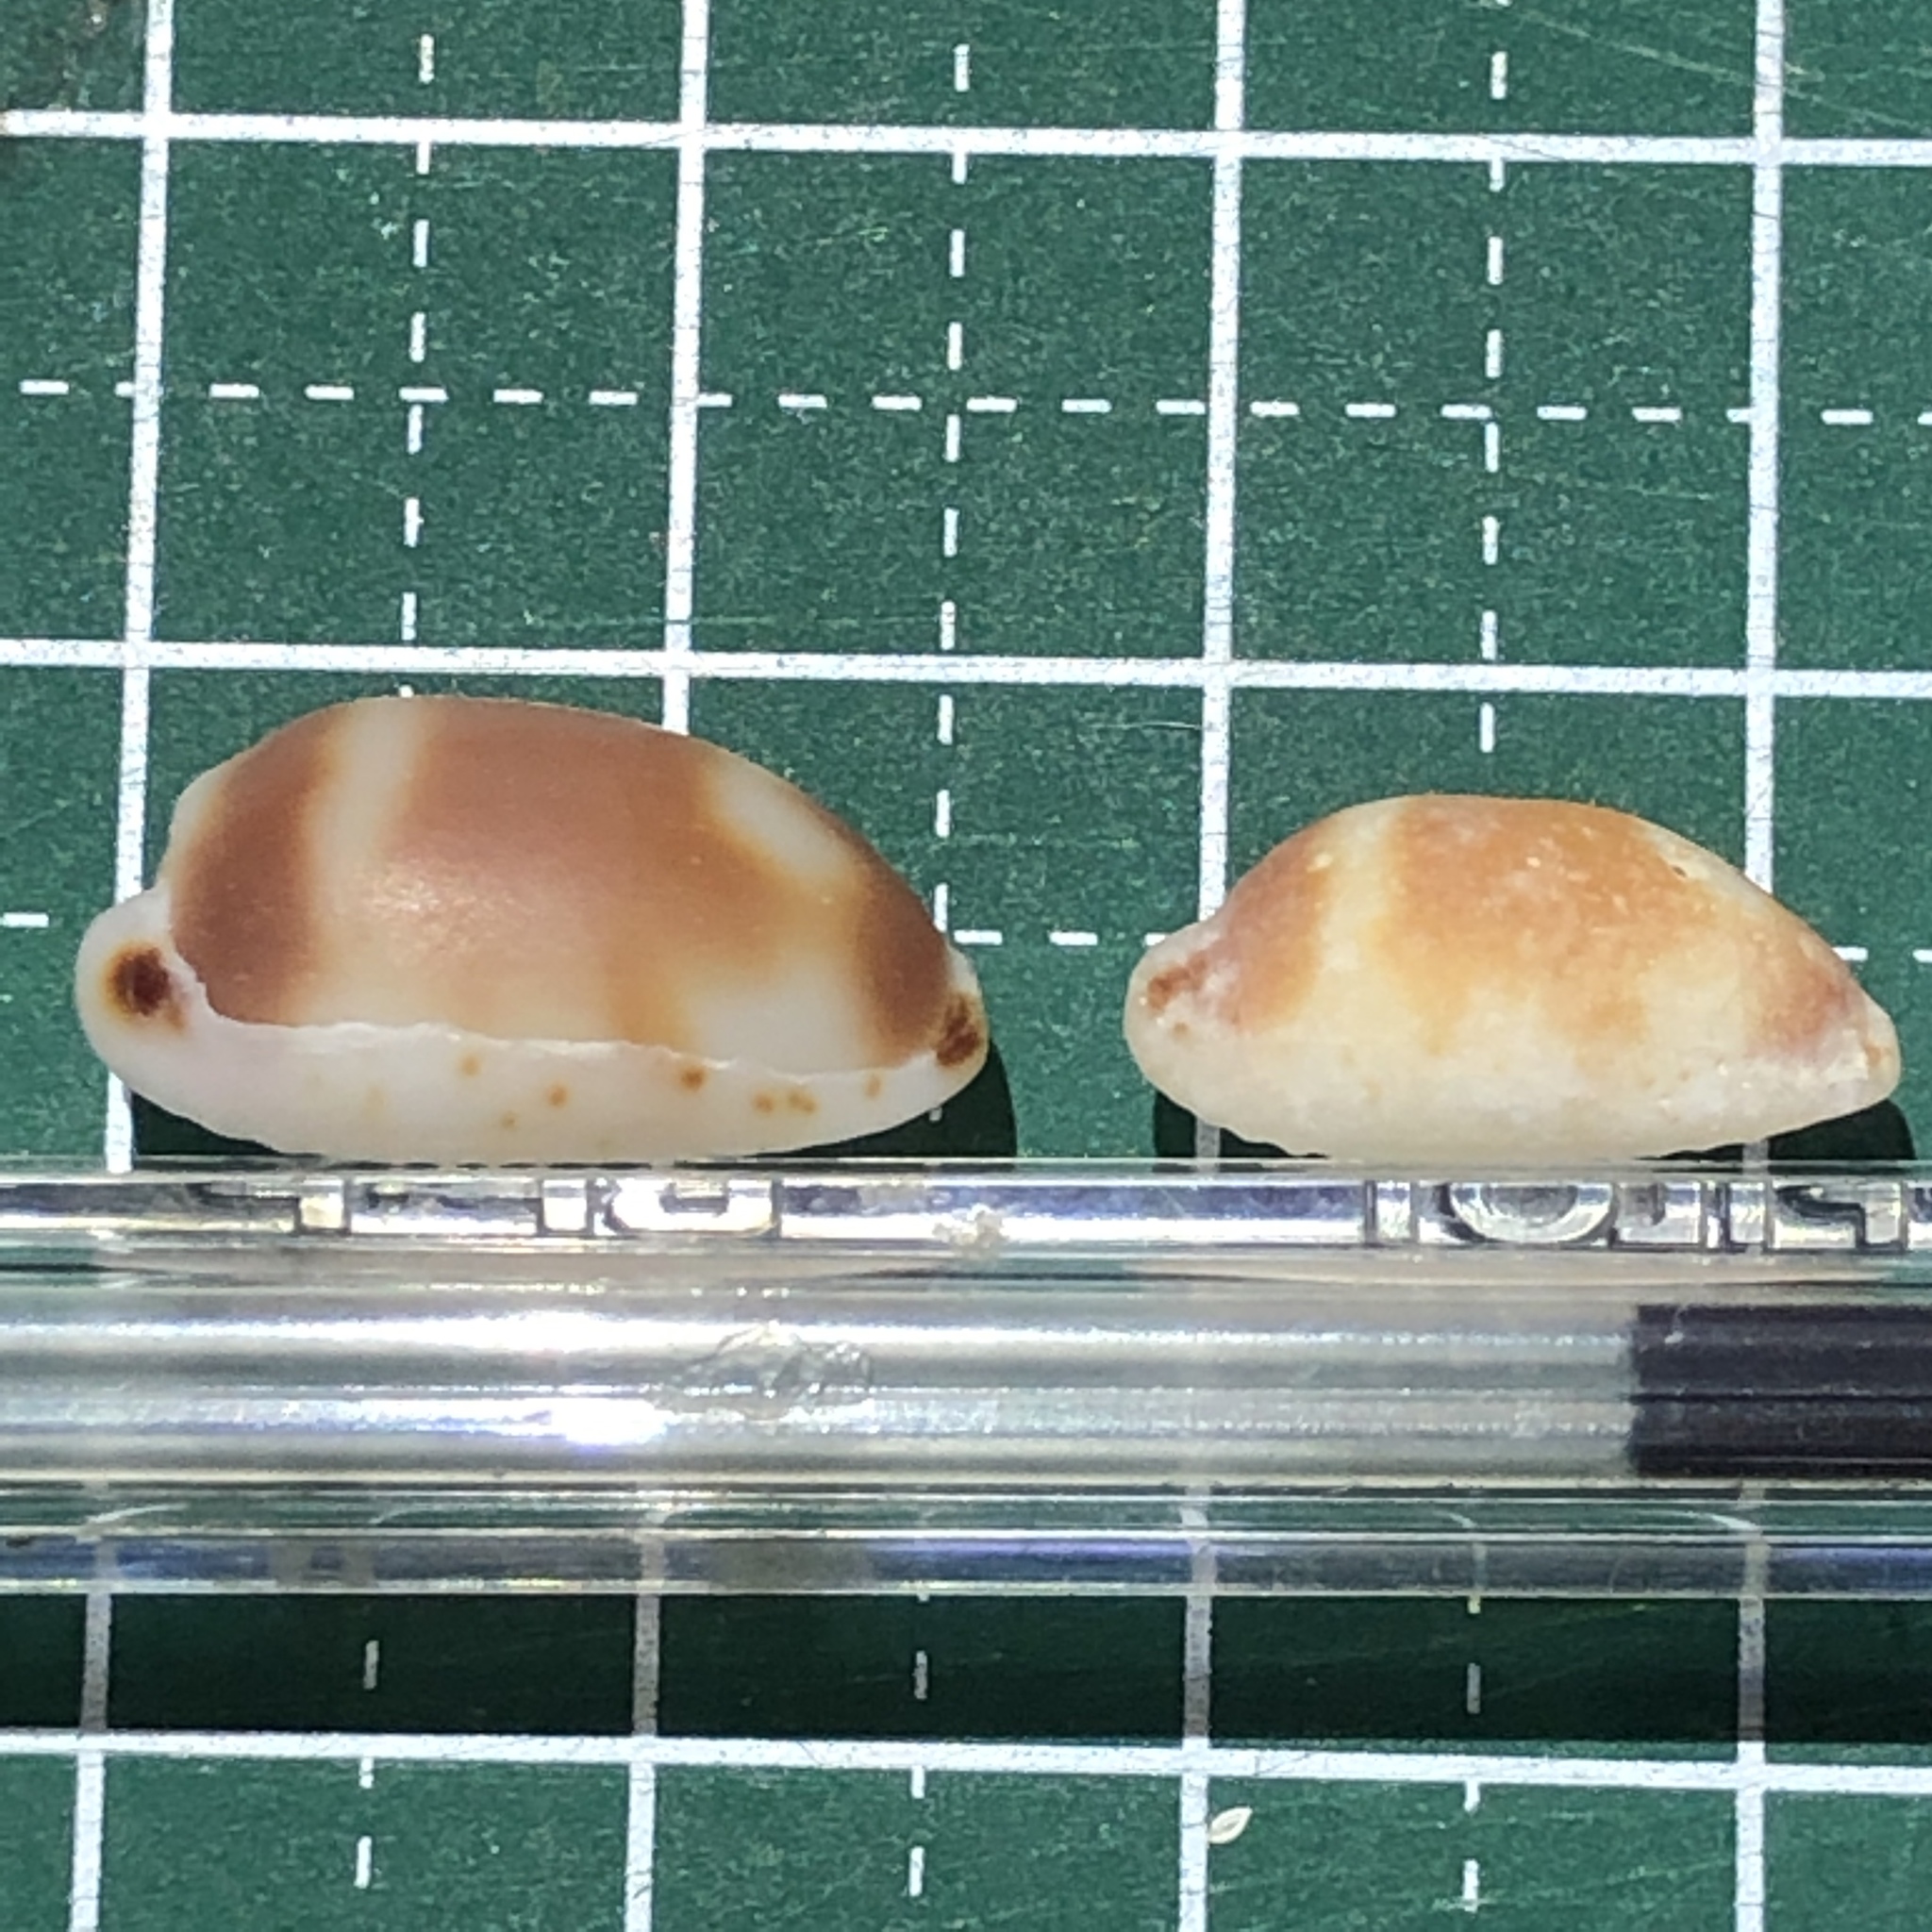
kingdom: Animalia
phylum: Mollusca
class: Gastropoda
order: Littorinimorpha
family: Cypraeidae
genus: Bistolida
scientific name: Bistolida hirundo
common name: Cowrie
